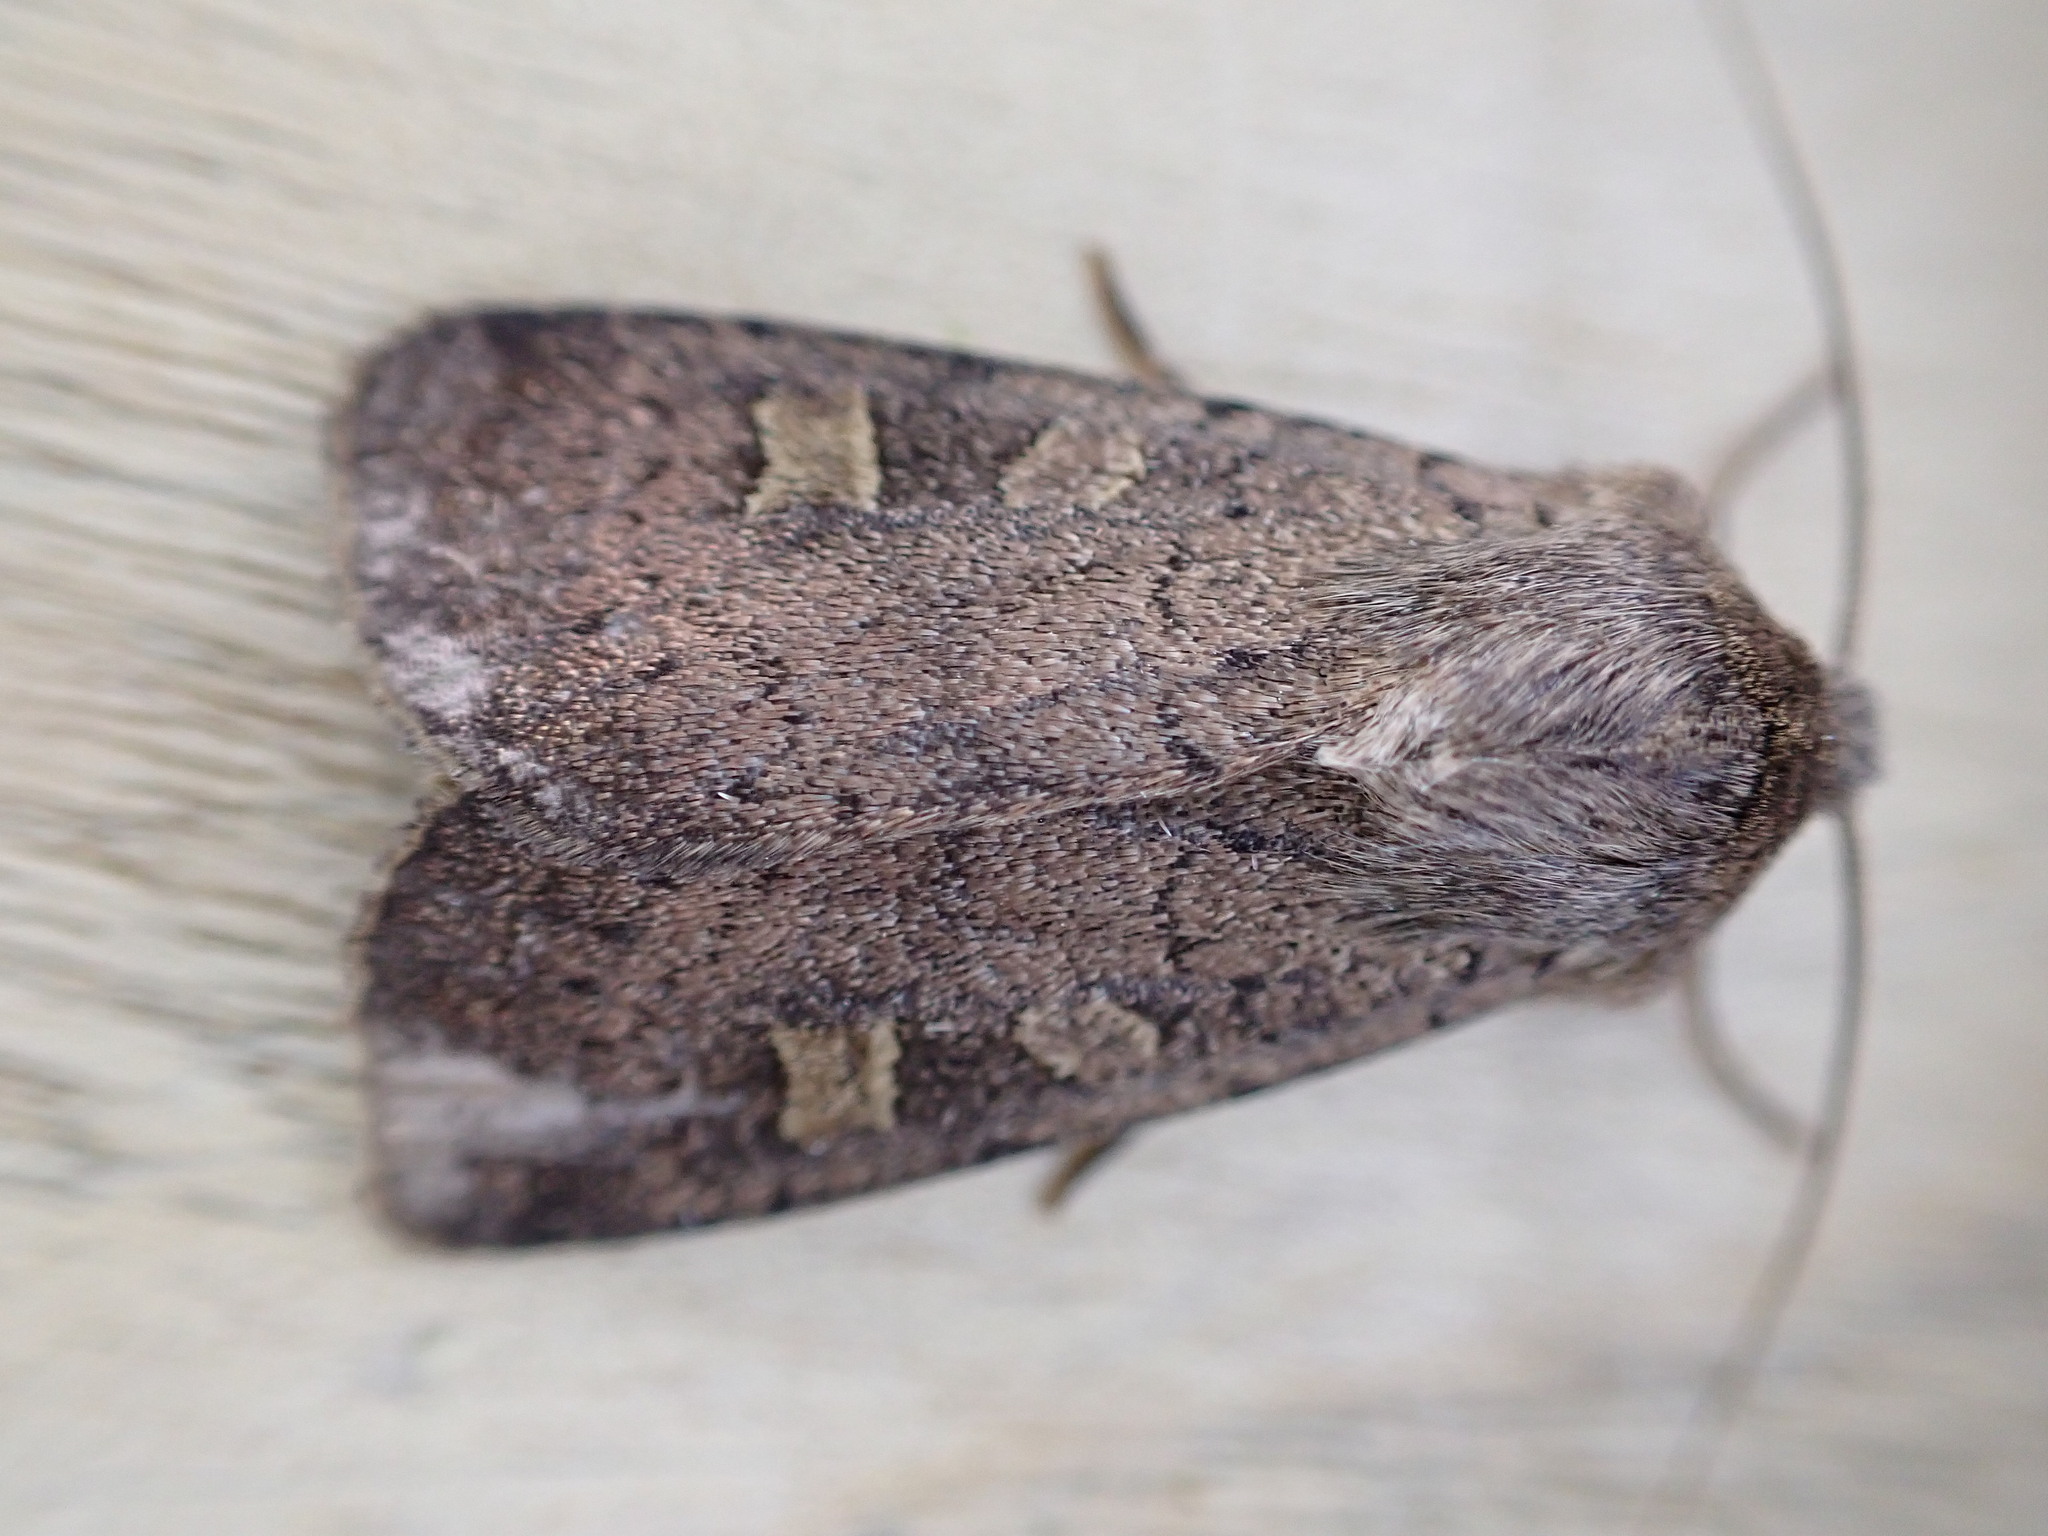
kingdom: Animalia
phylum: Arthropoda
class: Insecta
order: Lepidoptera
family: Noctuidae
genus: Xestia
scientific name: Xestia xanthographa
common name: Square-spot rustic
